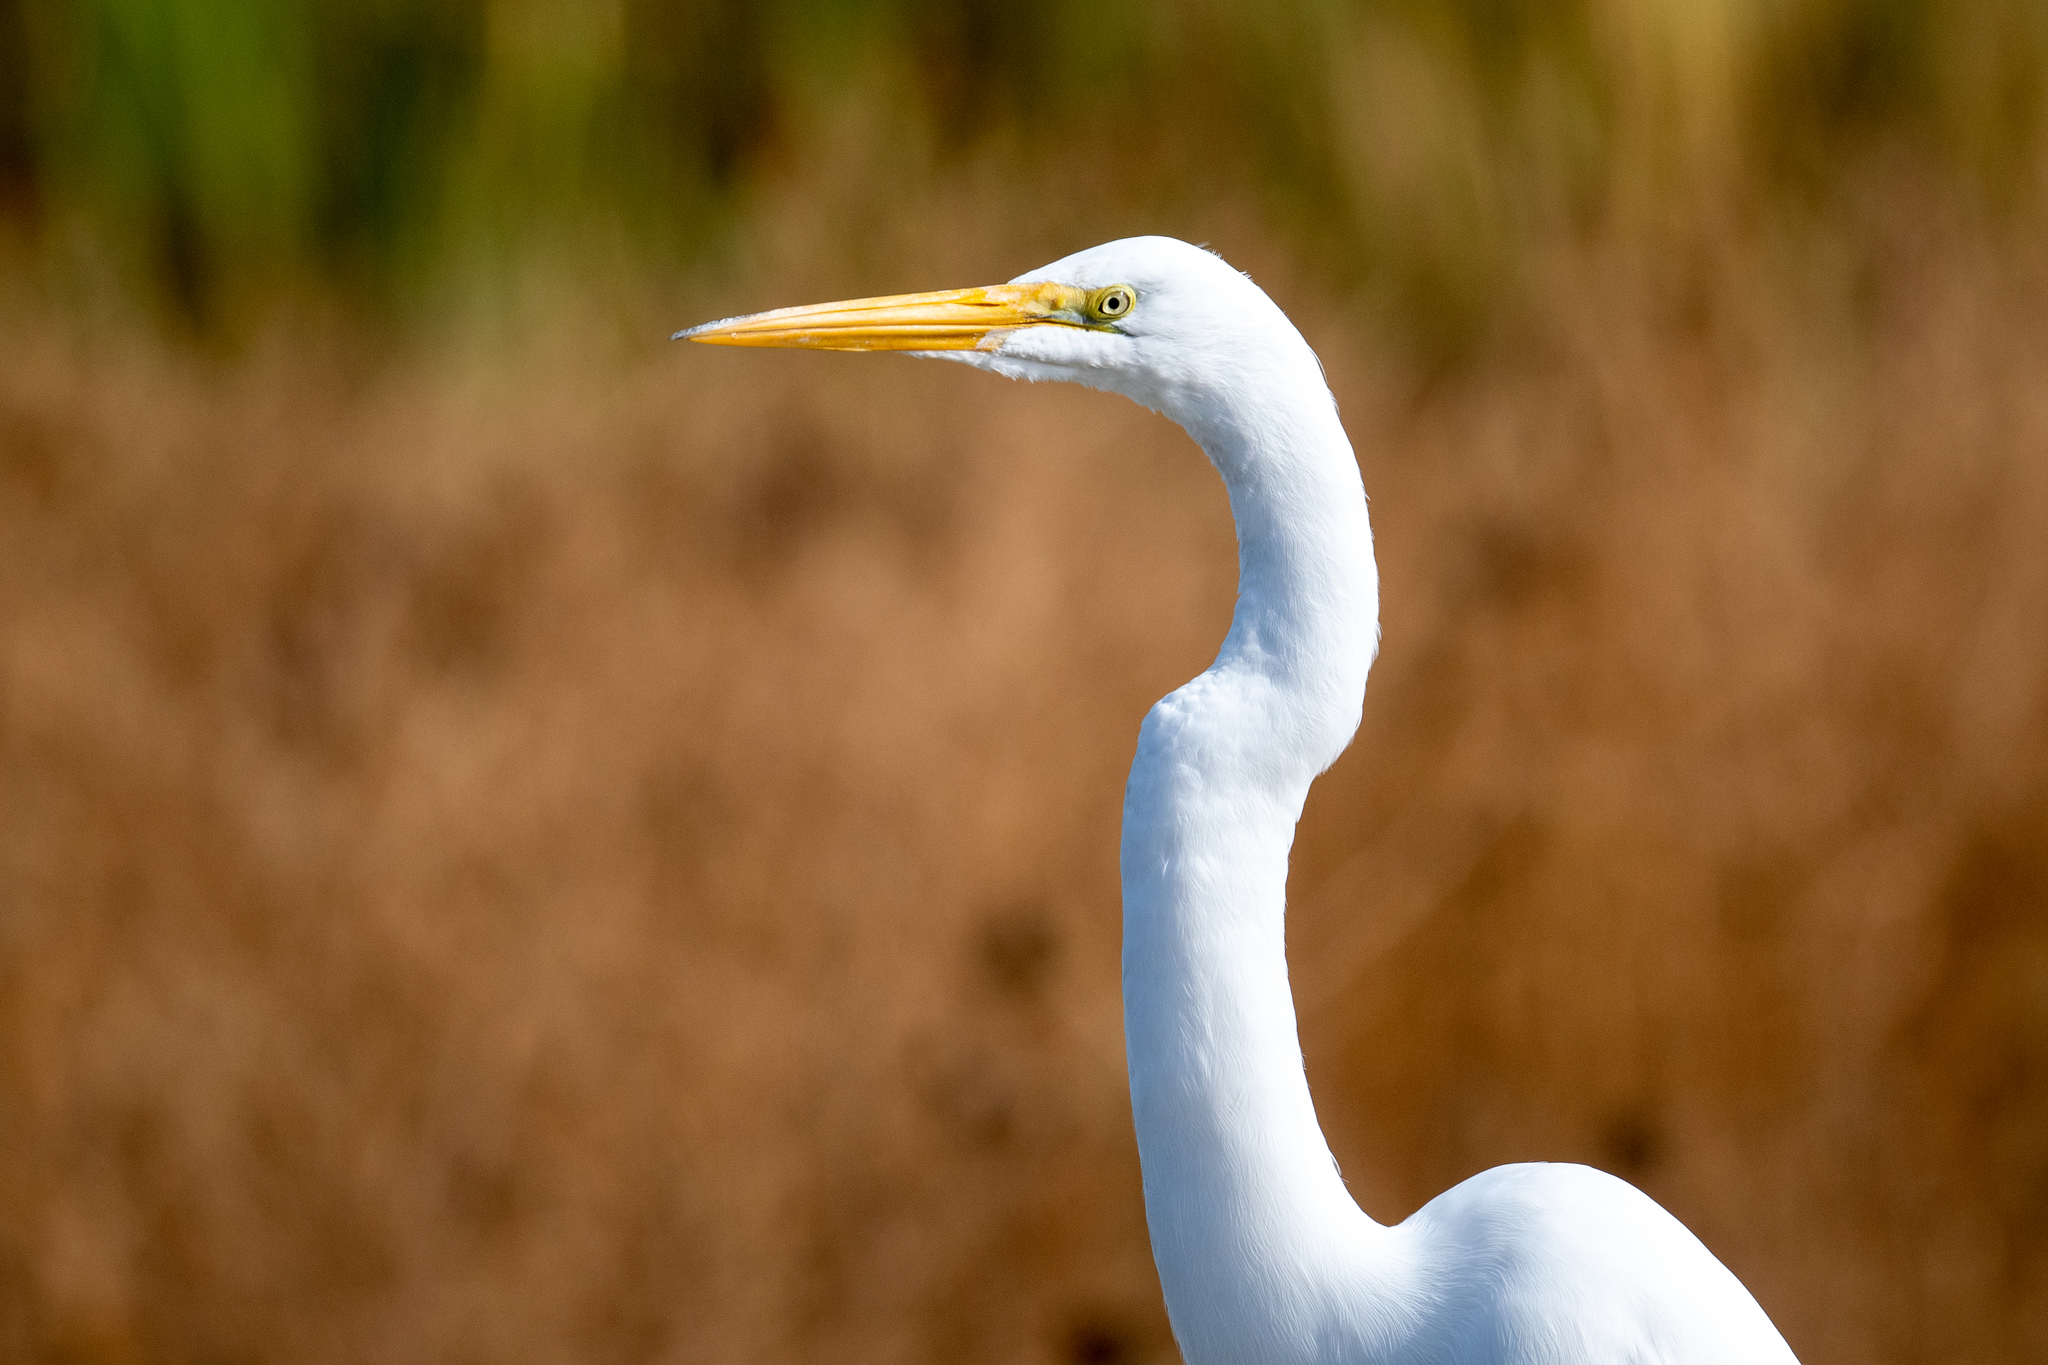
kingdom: Animalia
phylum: Chordata
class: Aves
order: Pelecaniformes
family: Ardeidae
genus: Ardea
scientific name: Ardea alba
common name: Great egret
